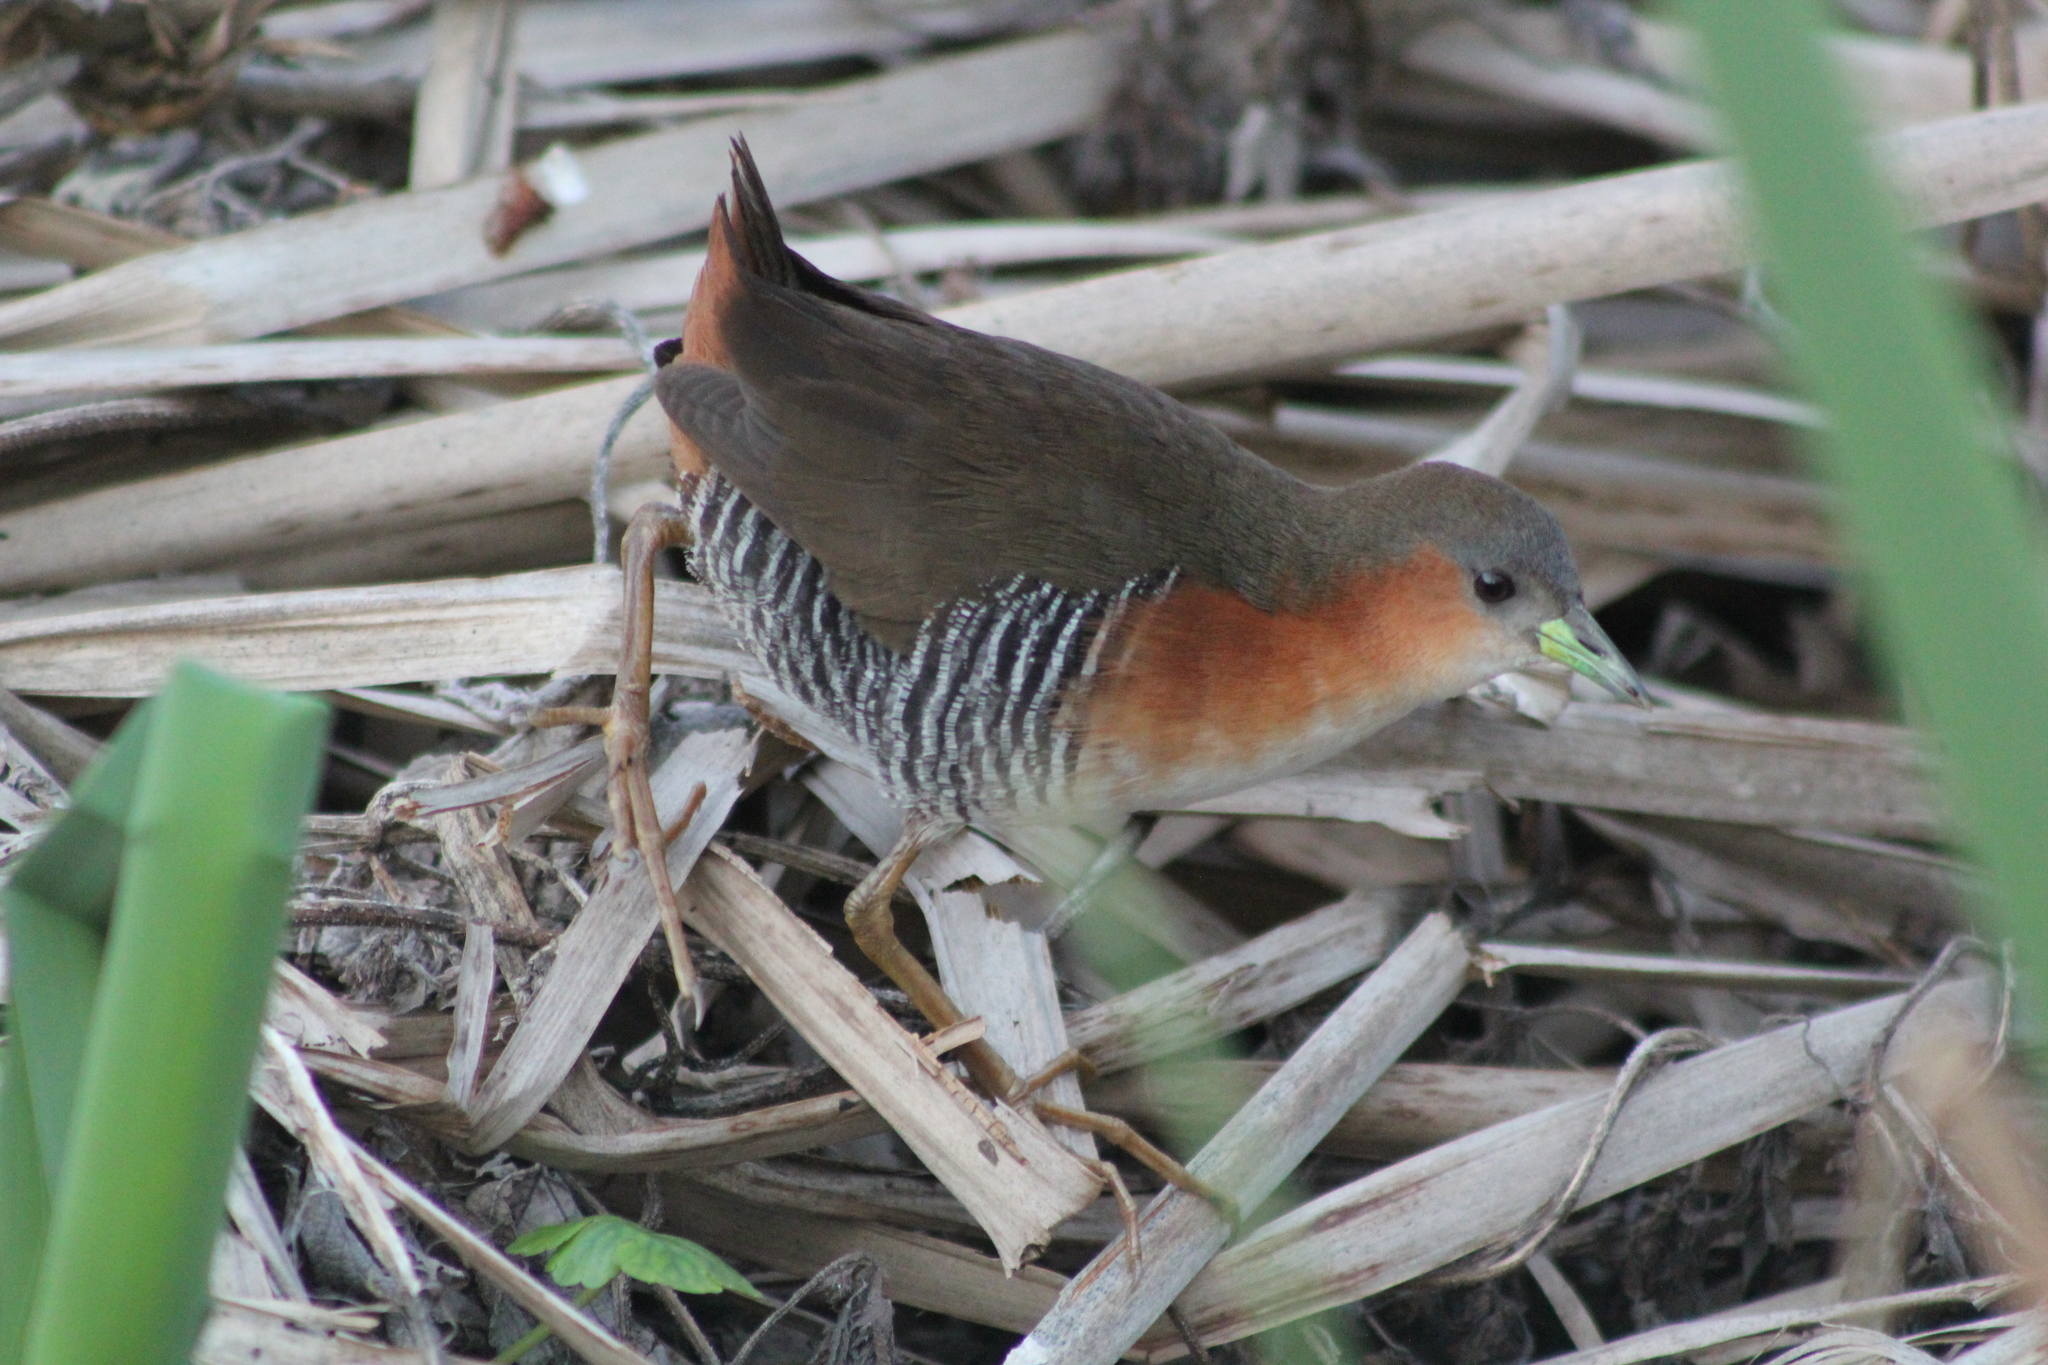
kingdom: Animalia
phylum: Chordata
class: Aves
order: Gruiformes
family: Rallidae
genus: Laterallus
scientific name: Laterallus melanophaius
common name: Rufous-sided crake
